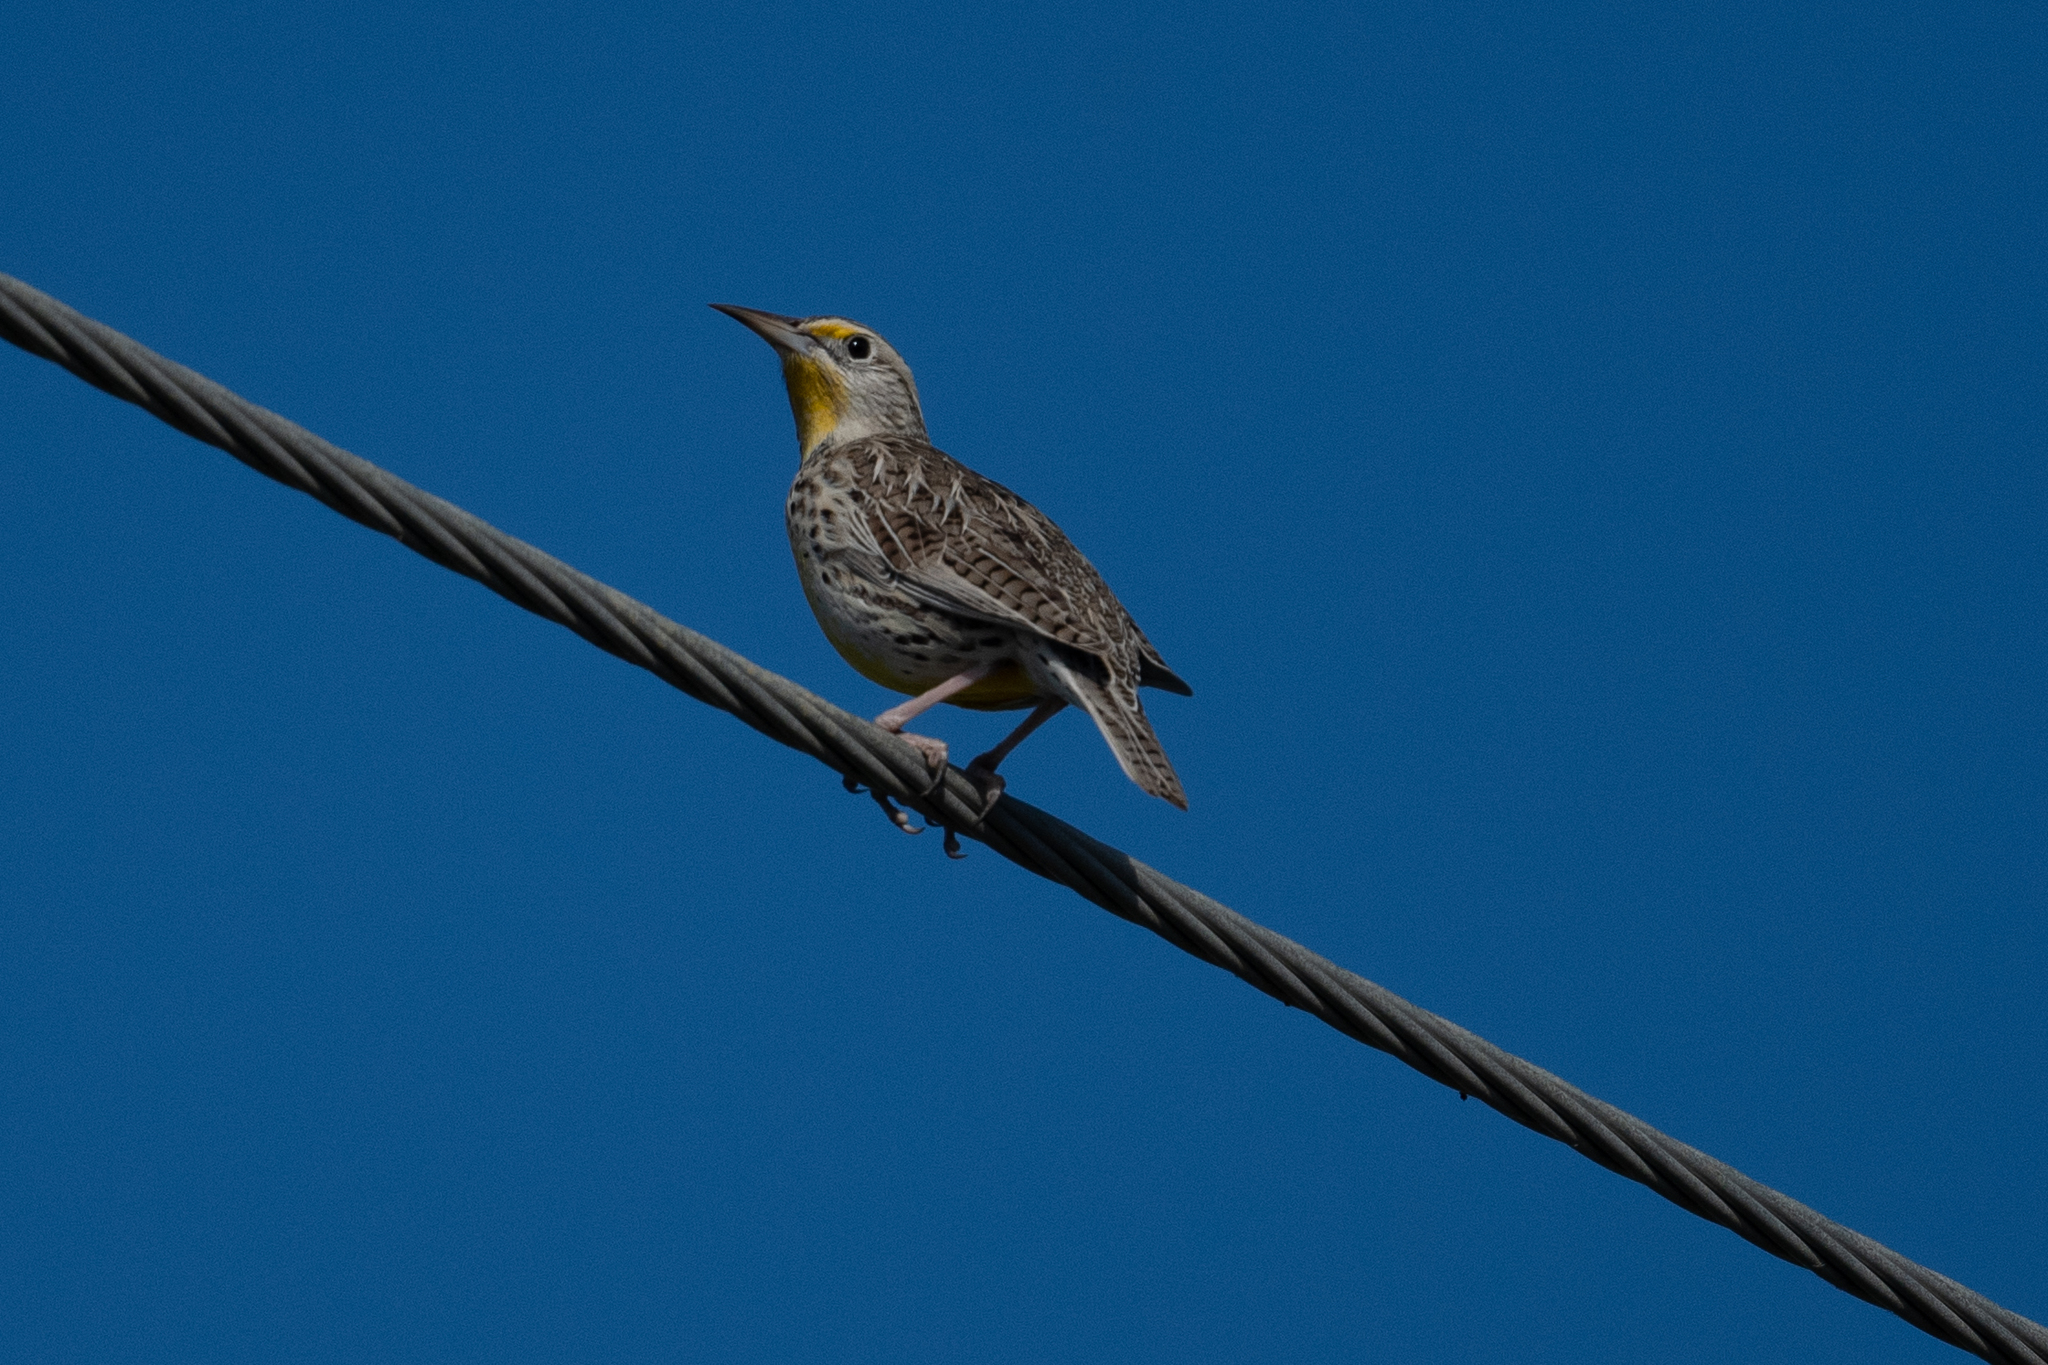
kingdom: Animalia
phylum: Chordata
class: Aves
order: Passeriformes
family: Icteridae
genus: Sturnella
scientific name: Sturnella neglecta
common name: Western meadowlark
